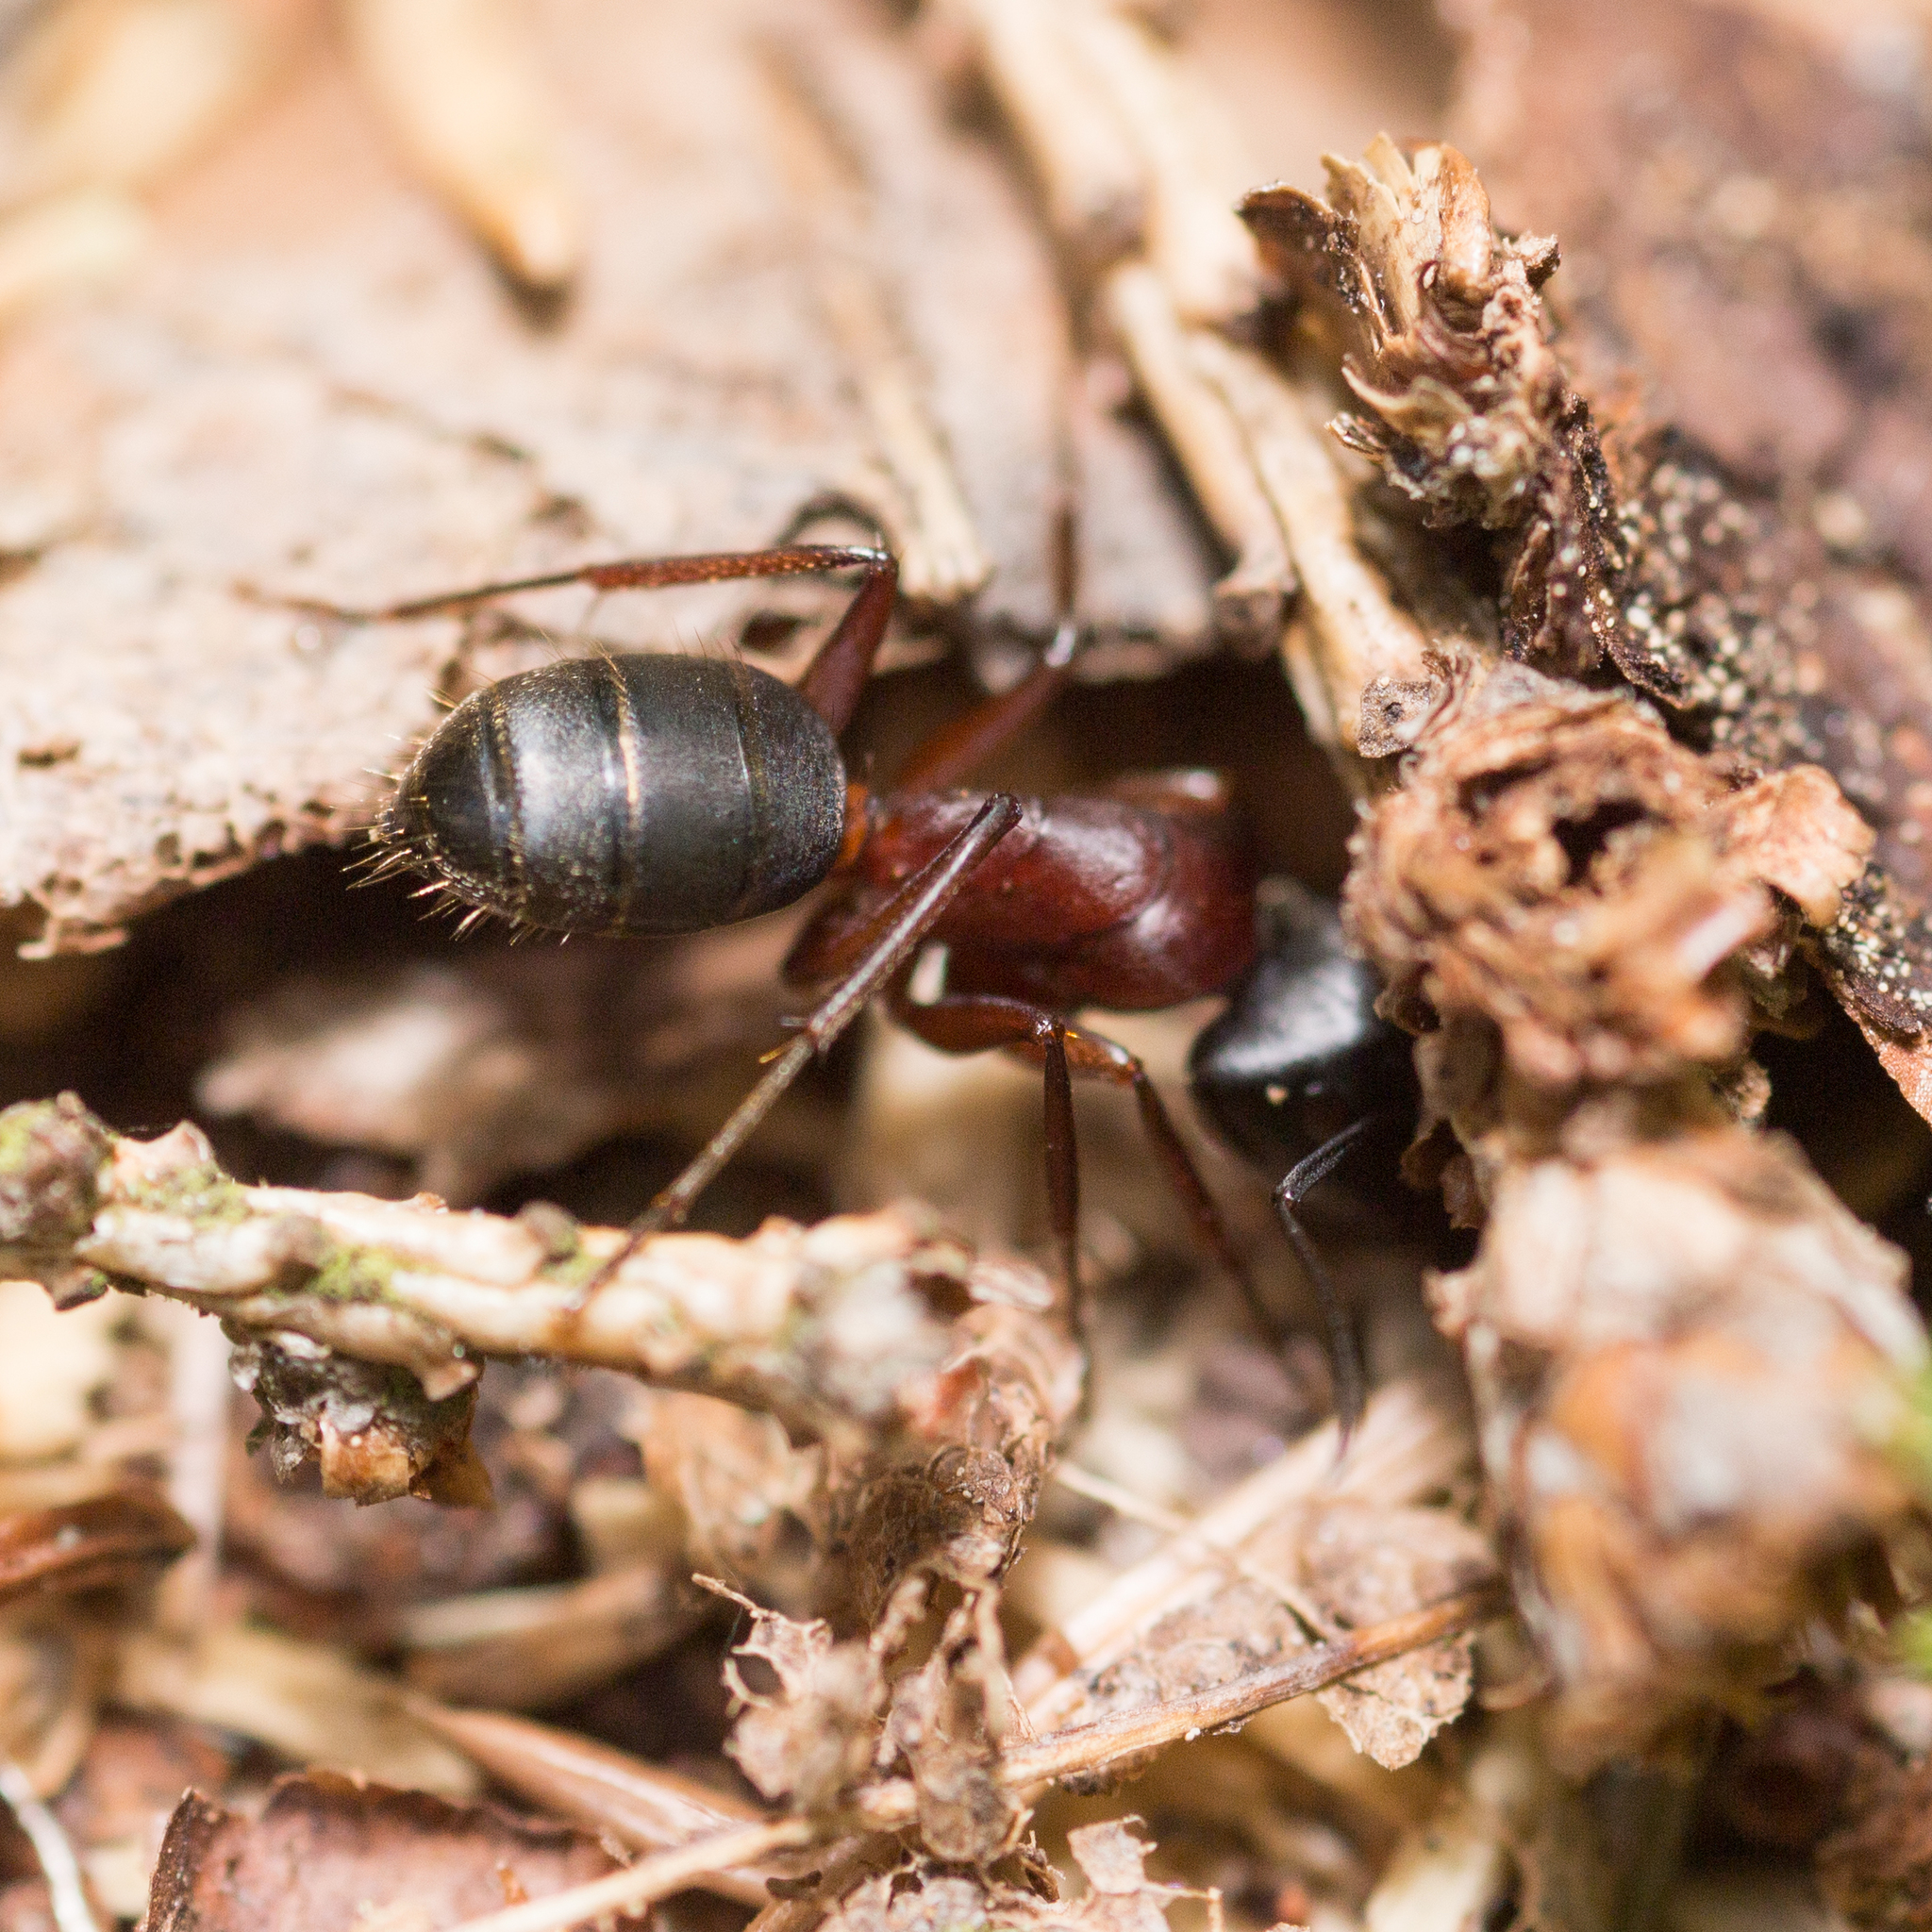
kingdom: Animalia
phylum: Arthropoda
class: Insecta
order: Hymenoptera
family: Formicidae
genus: Camponotus
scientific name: Camponotus herculeanus
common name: Hercules ant
